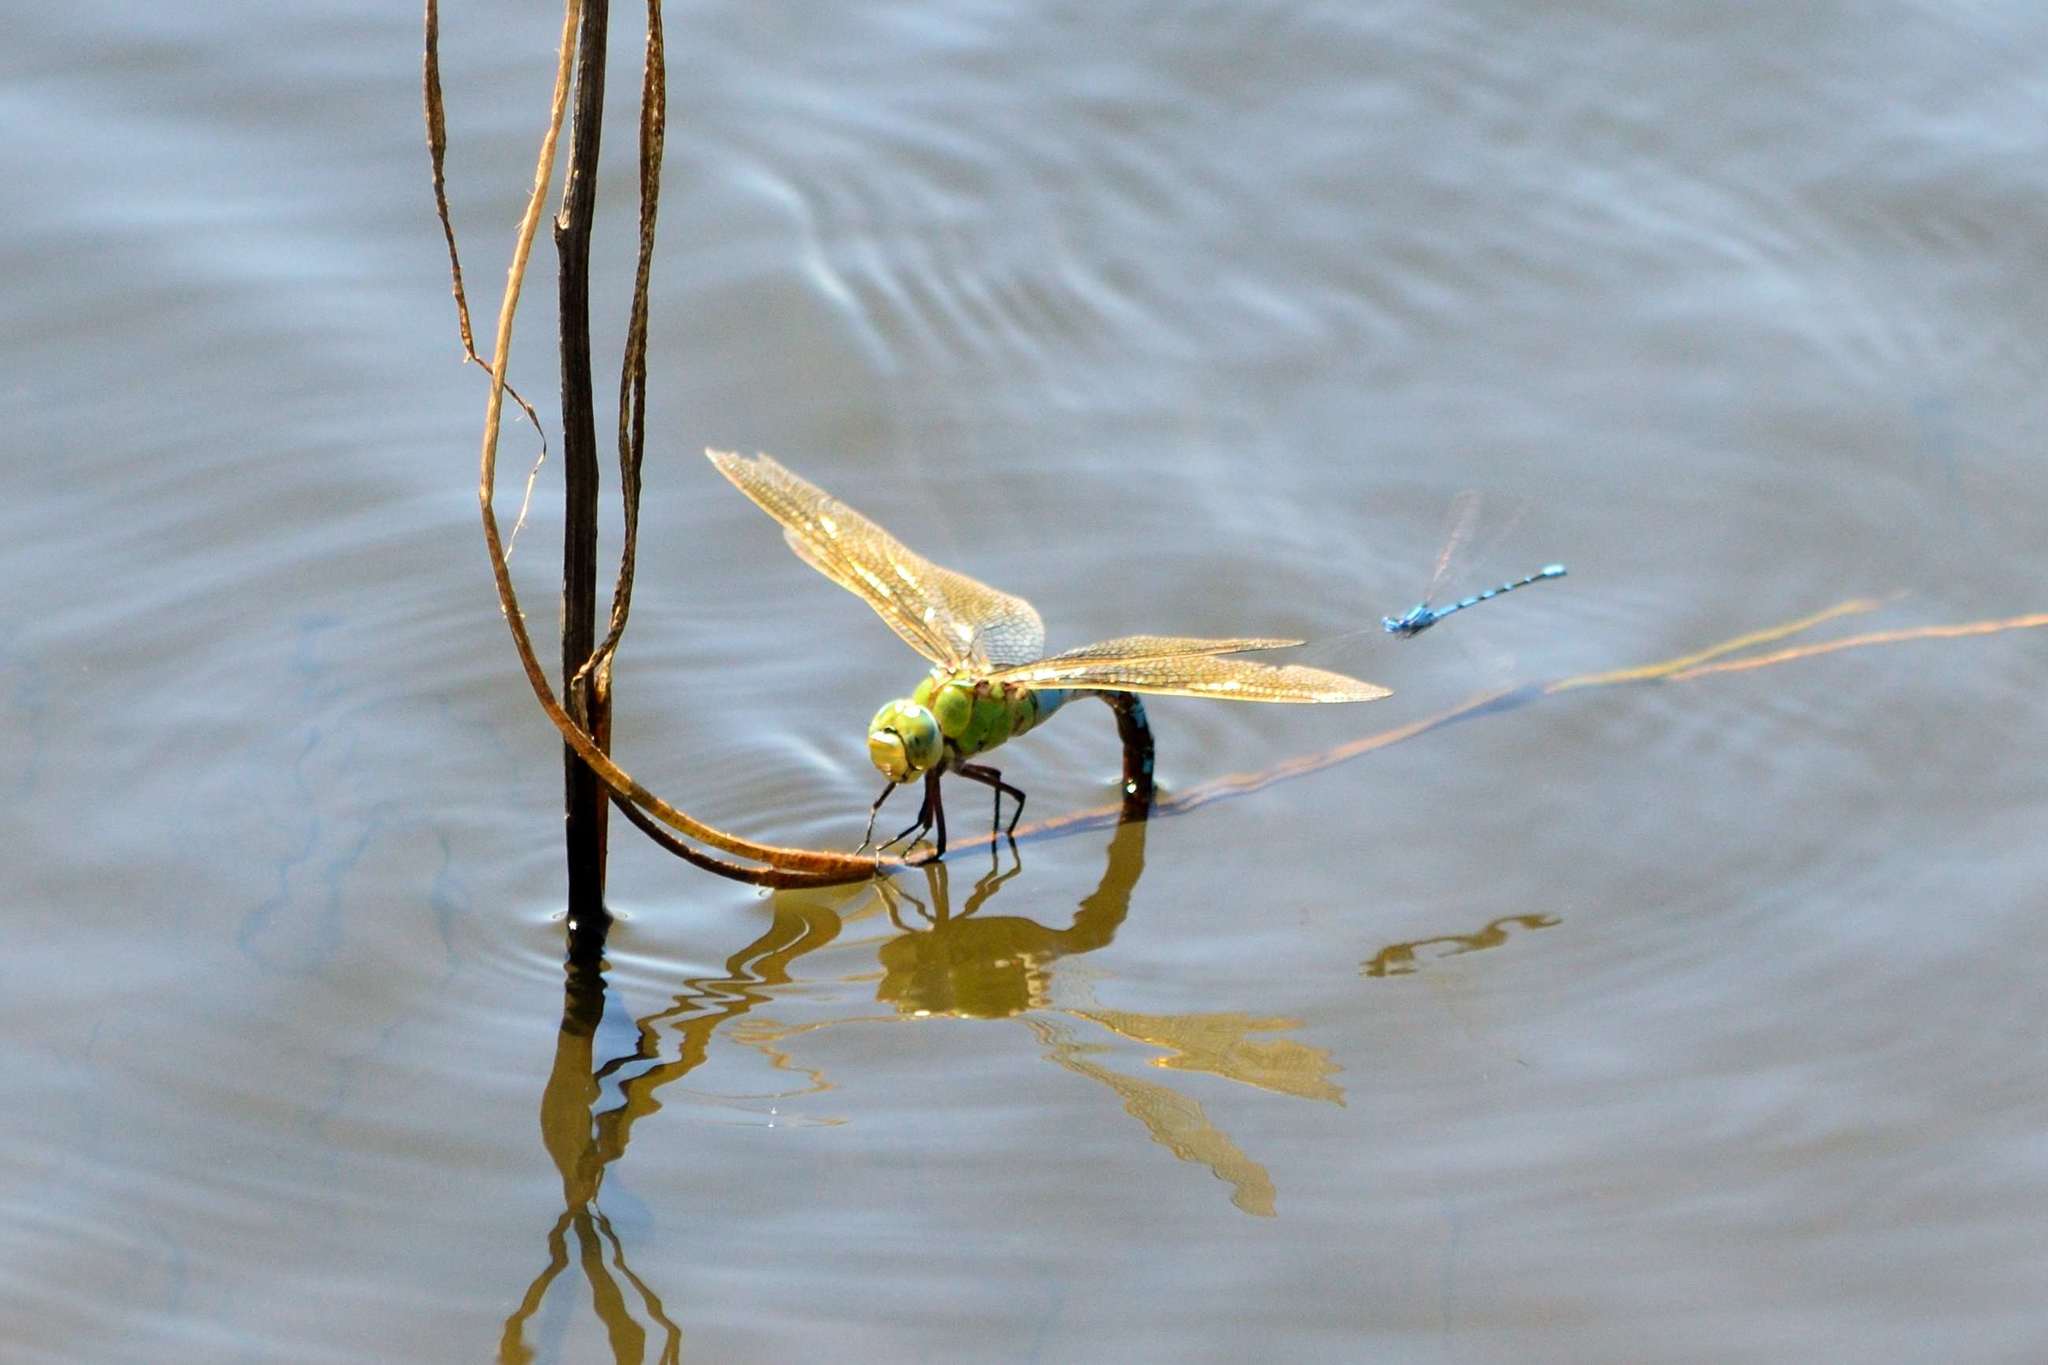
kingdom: Animalia
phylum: Arthropoda
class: Insecta
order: Odonata
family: Aeshnidae
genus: Anax
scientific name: Anax imperator
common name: Emperor dragonfly
